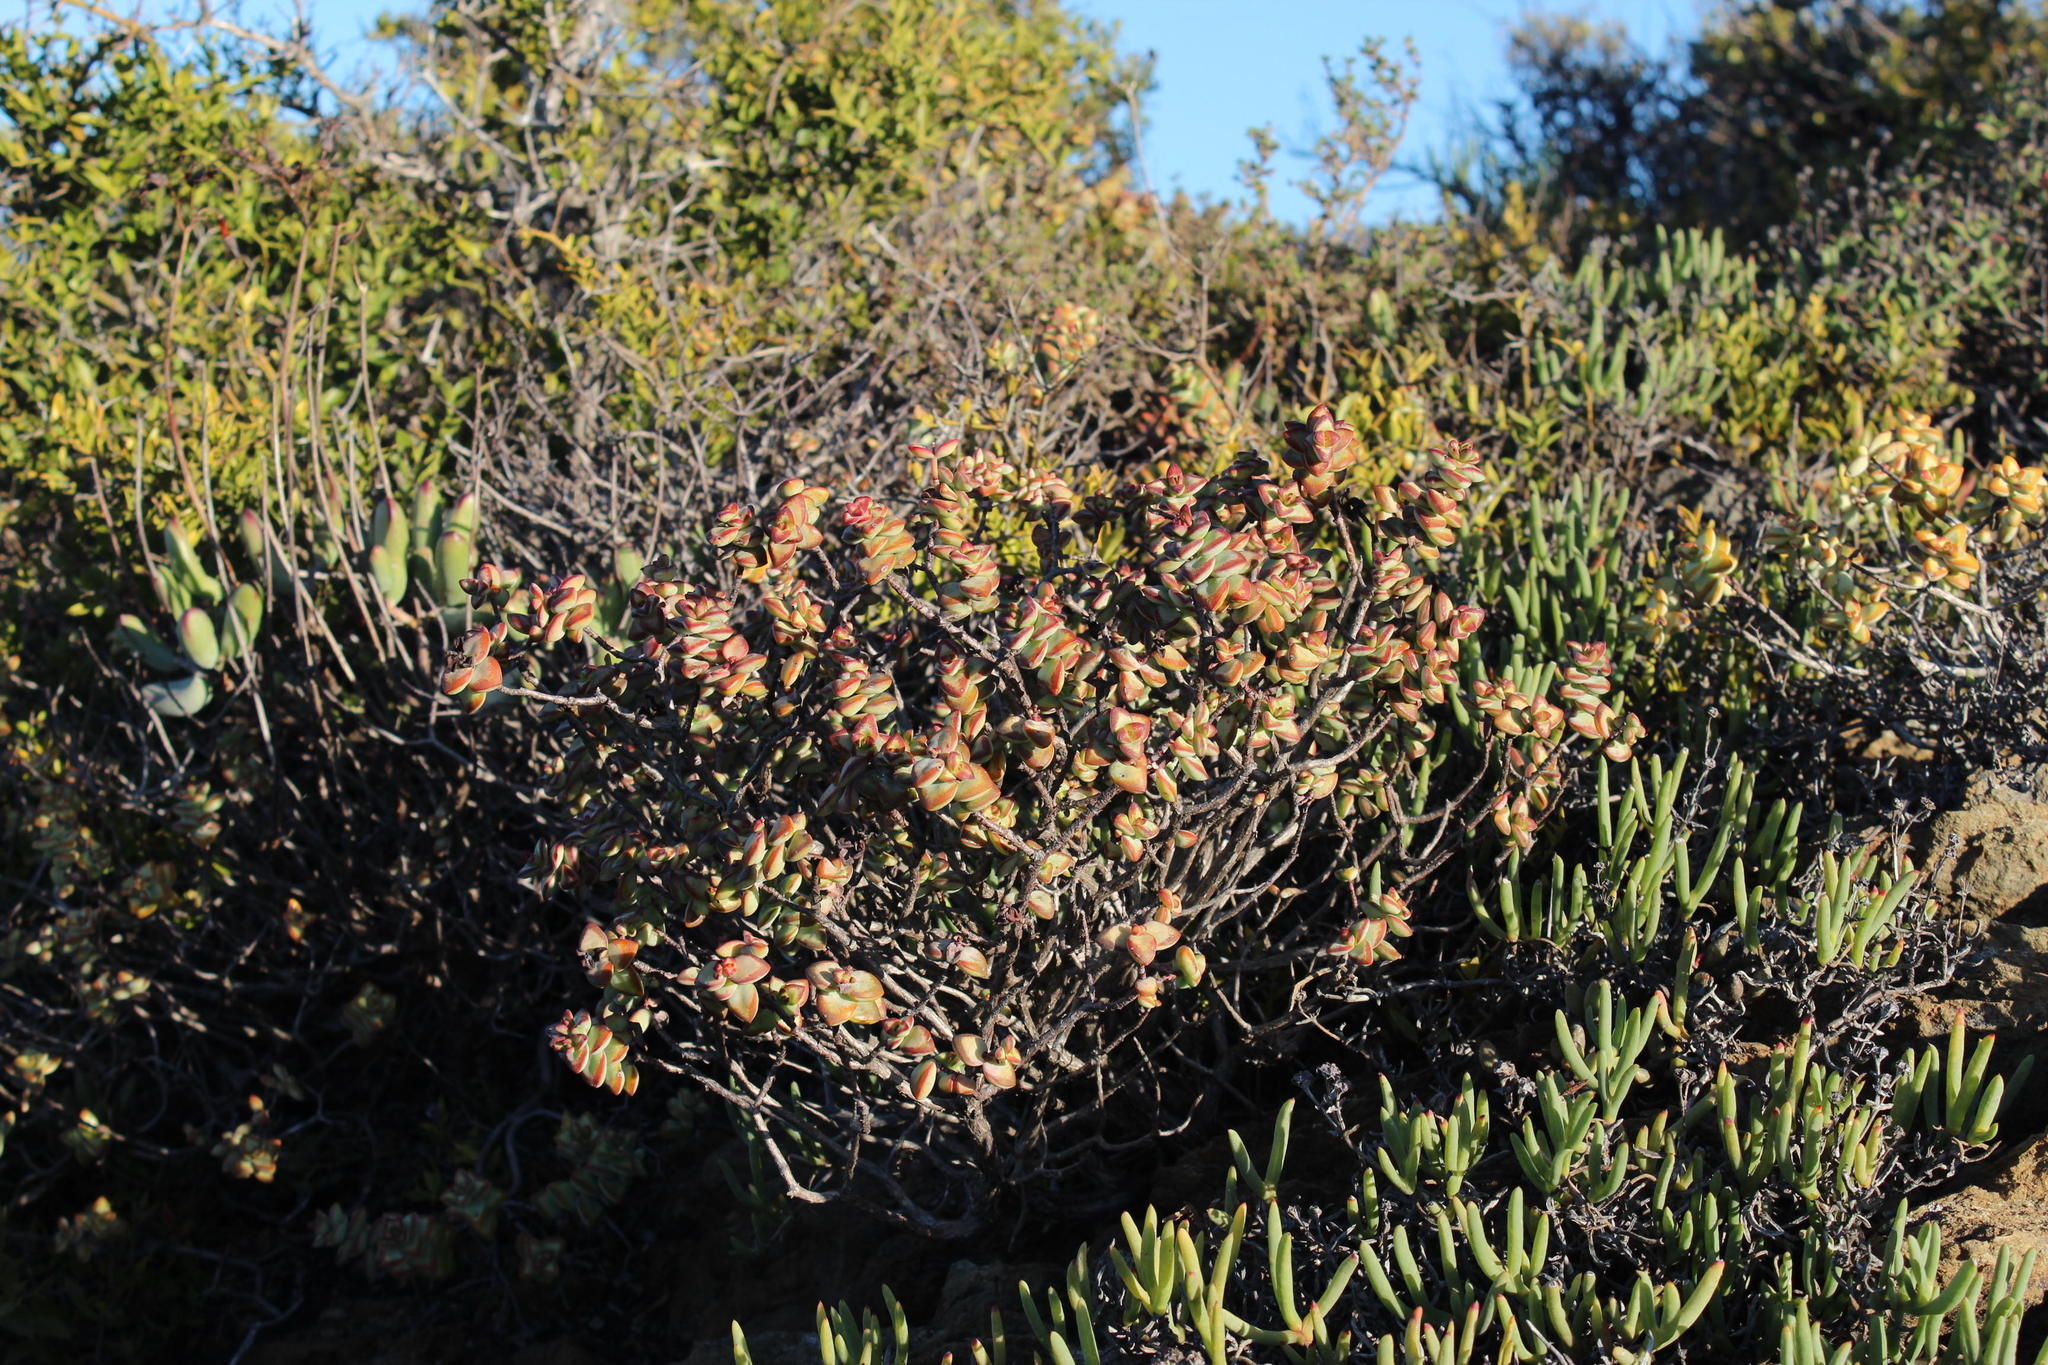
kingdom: Plantae
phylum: Tracheophyta
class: Magnoliopsida
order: Saxifragales
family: Crassulaceae
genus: Crassula
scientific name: Crassula rupestris
